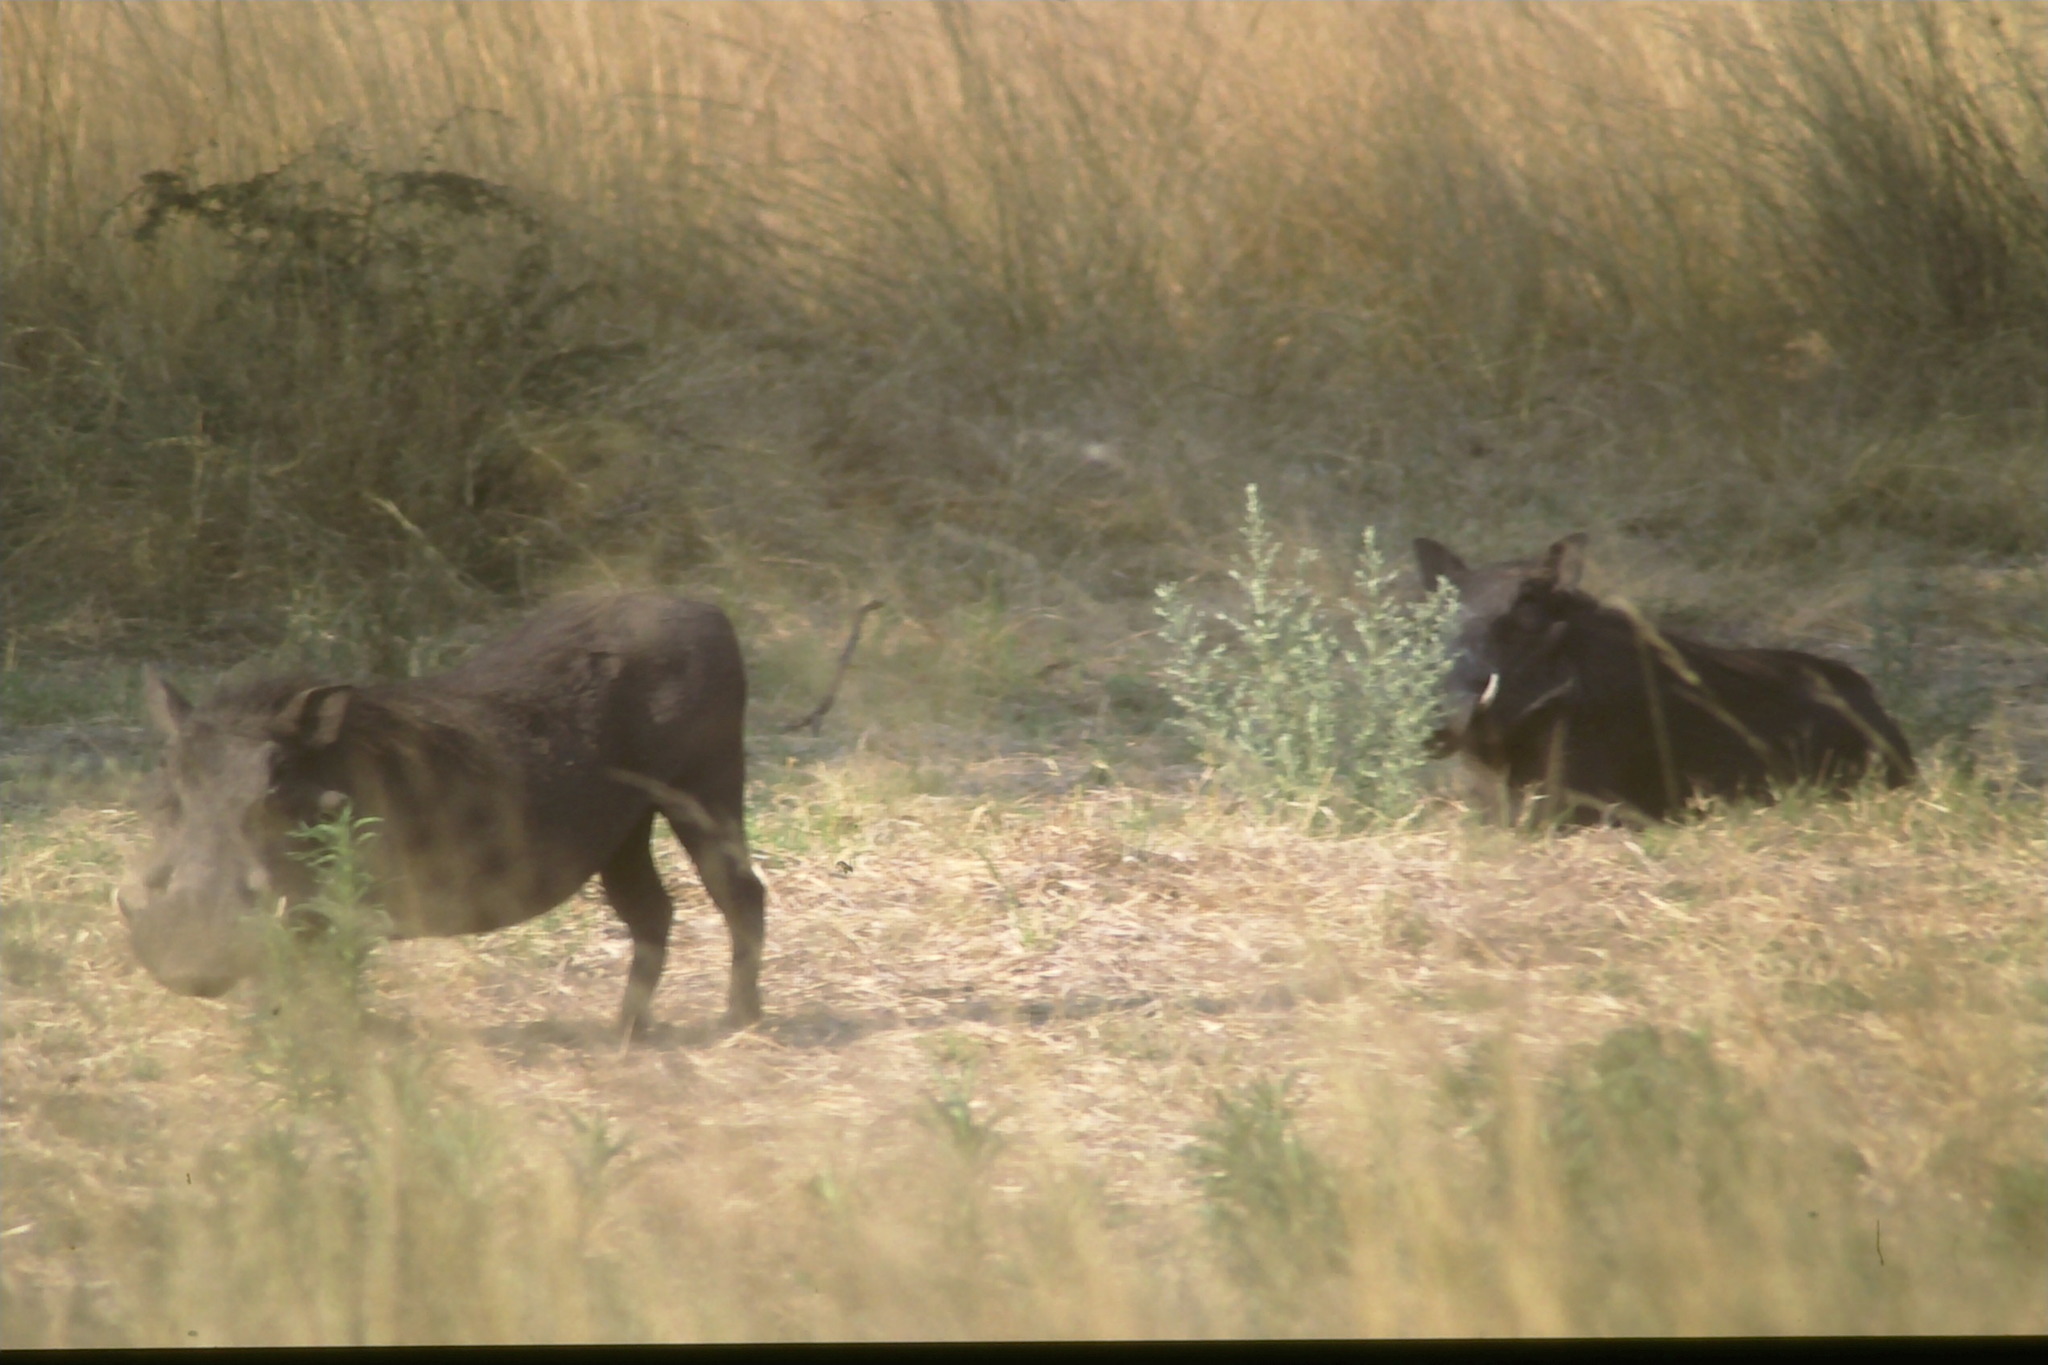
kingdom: Animalia
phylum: Chordata
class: Mammalia
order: Artiodactyla
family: Suidae
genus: Phacochoerus
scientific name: Phacochoerus africanus
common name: Common warthog
